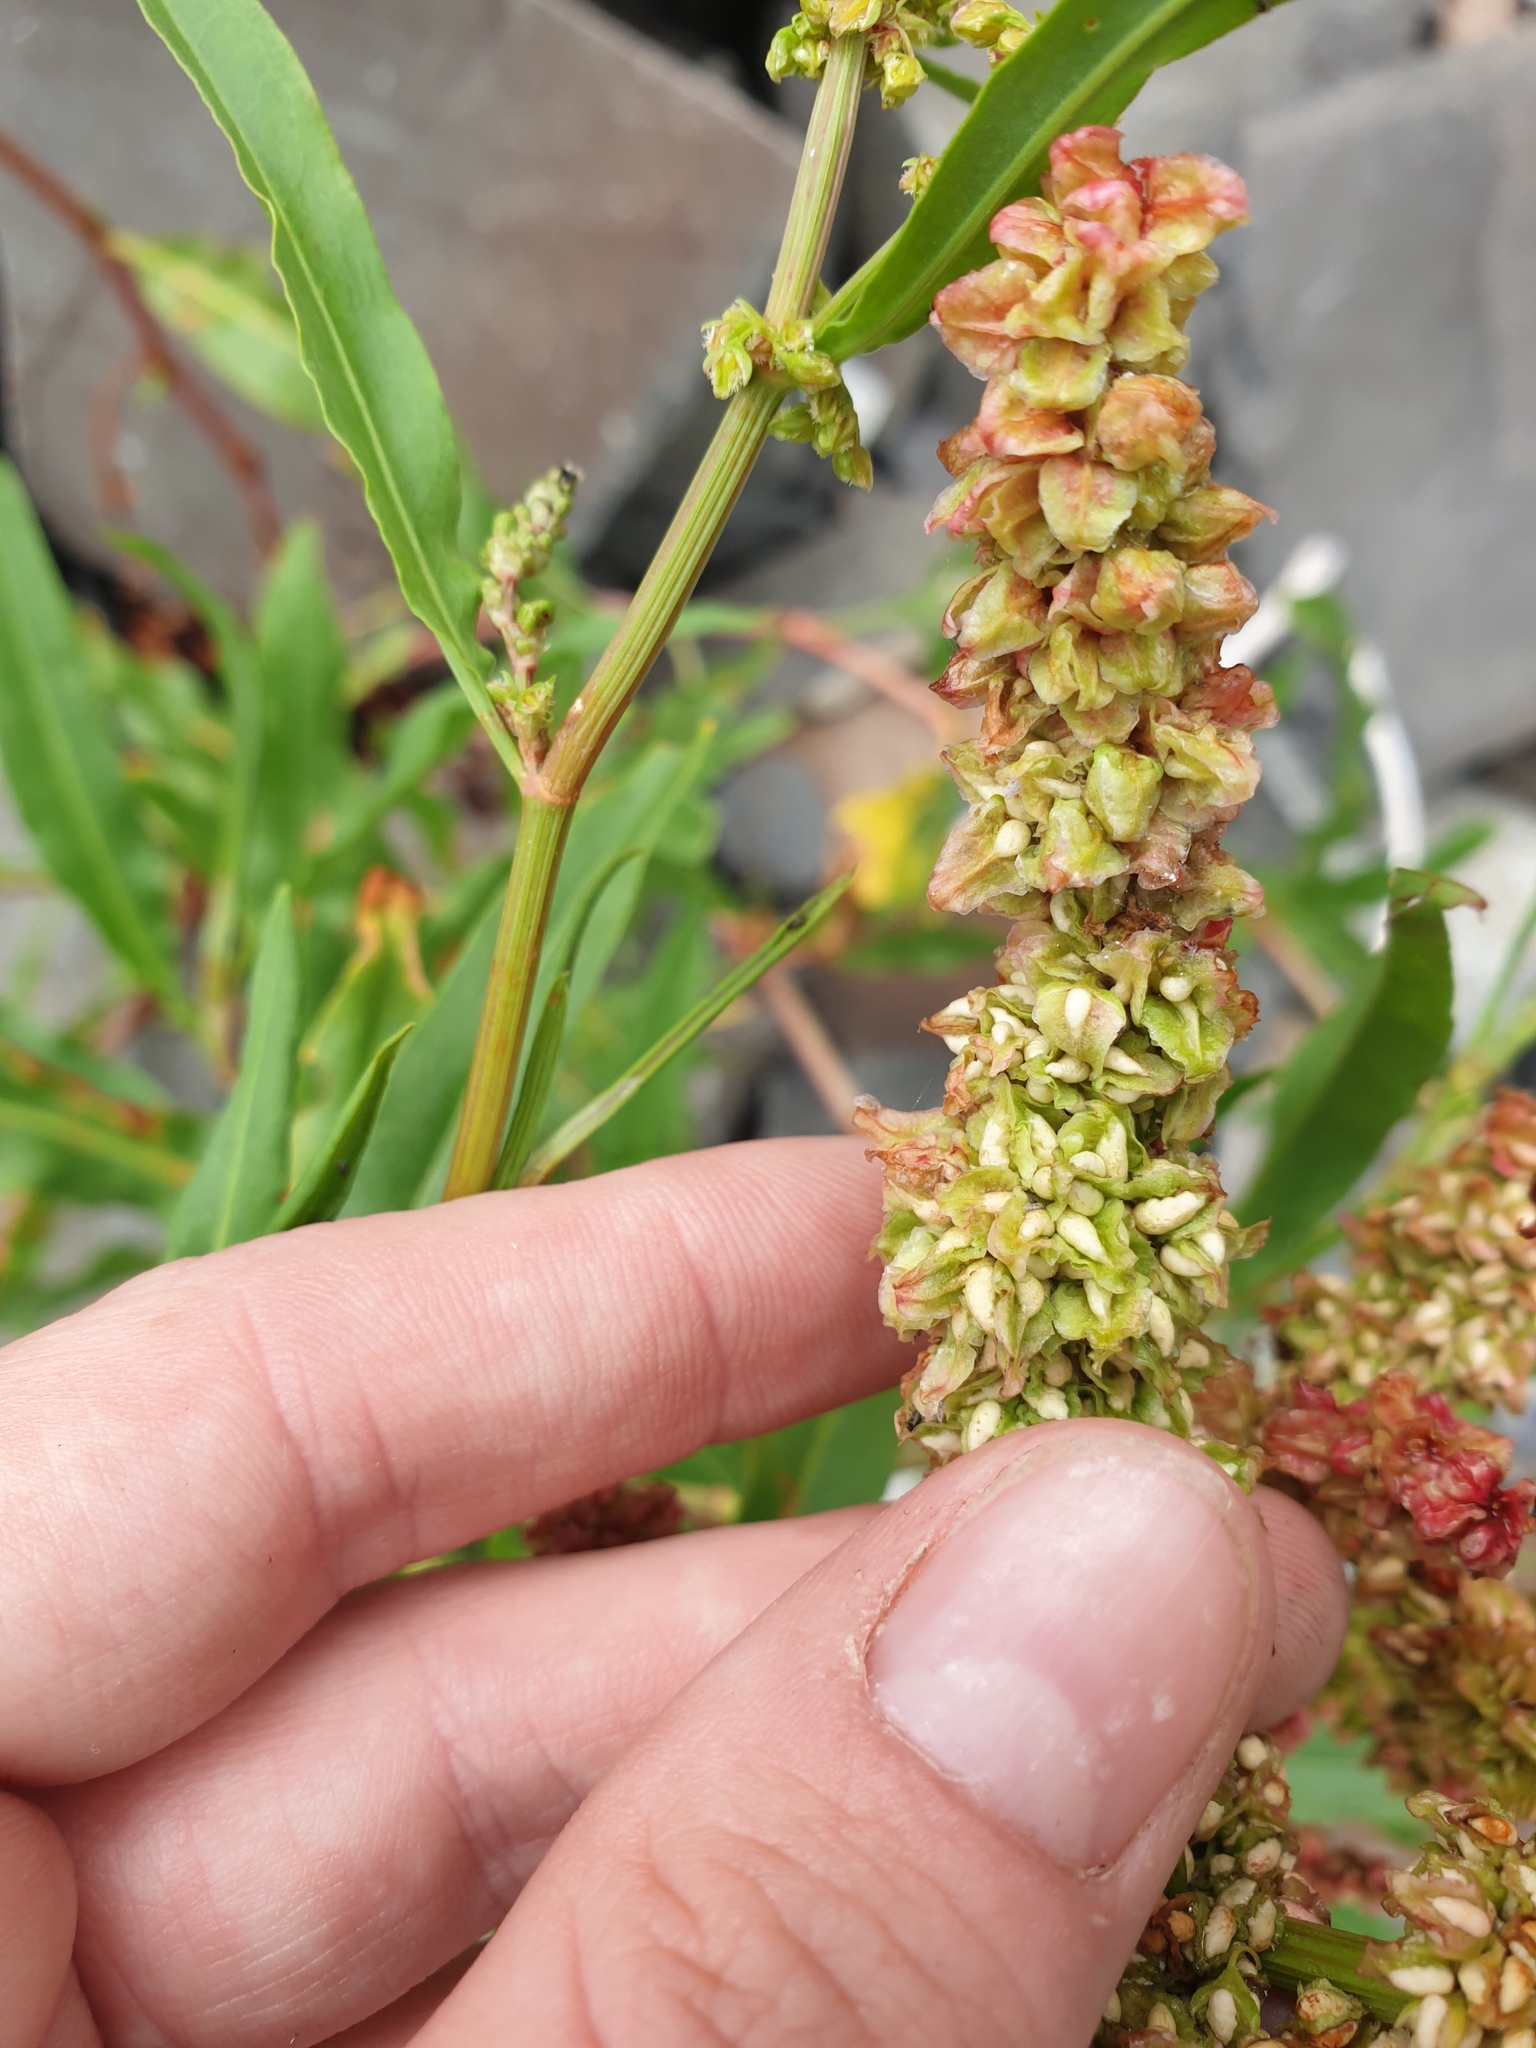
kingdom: Plantae
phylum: Tracheophyta
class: Magnoliopsida
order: Caryophyllales
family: Polygonaceae
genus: Rumex
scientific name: Rumex pallidus
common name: Large-tuberculed dock
